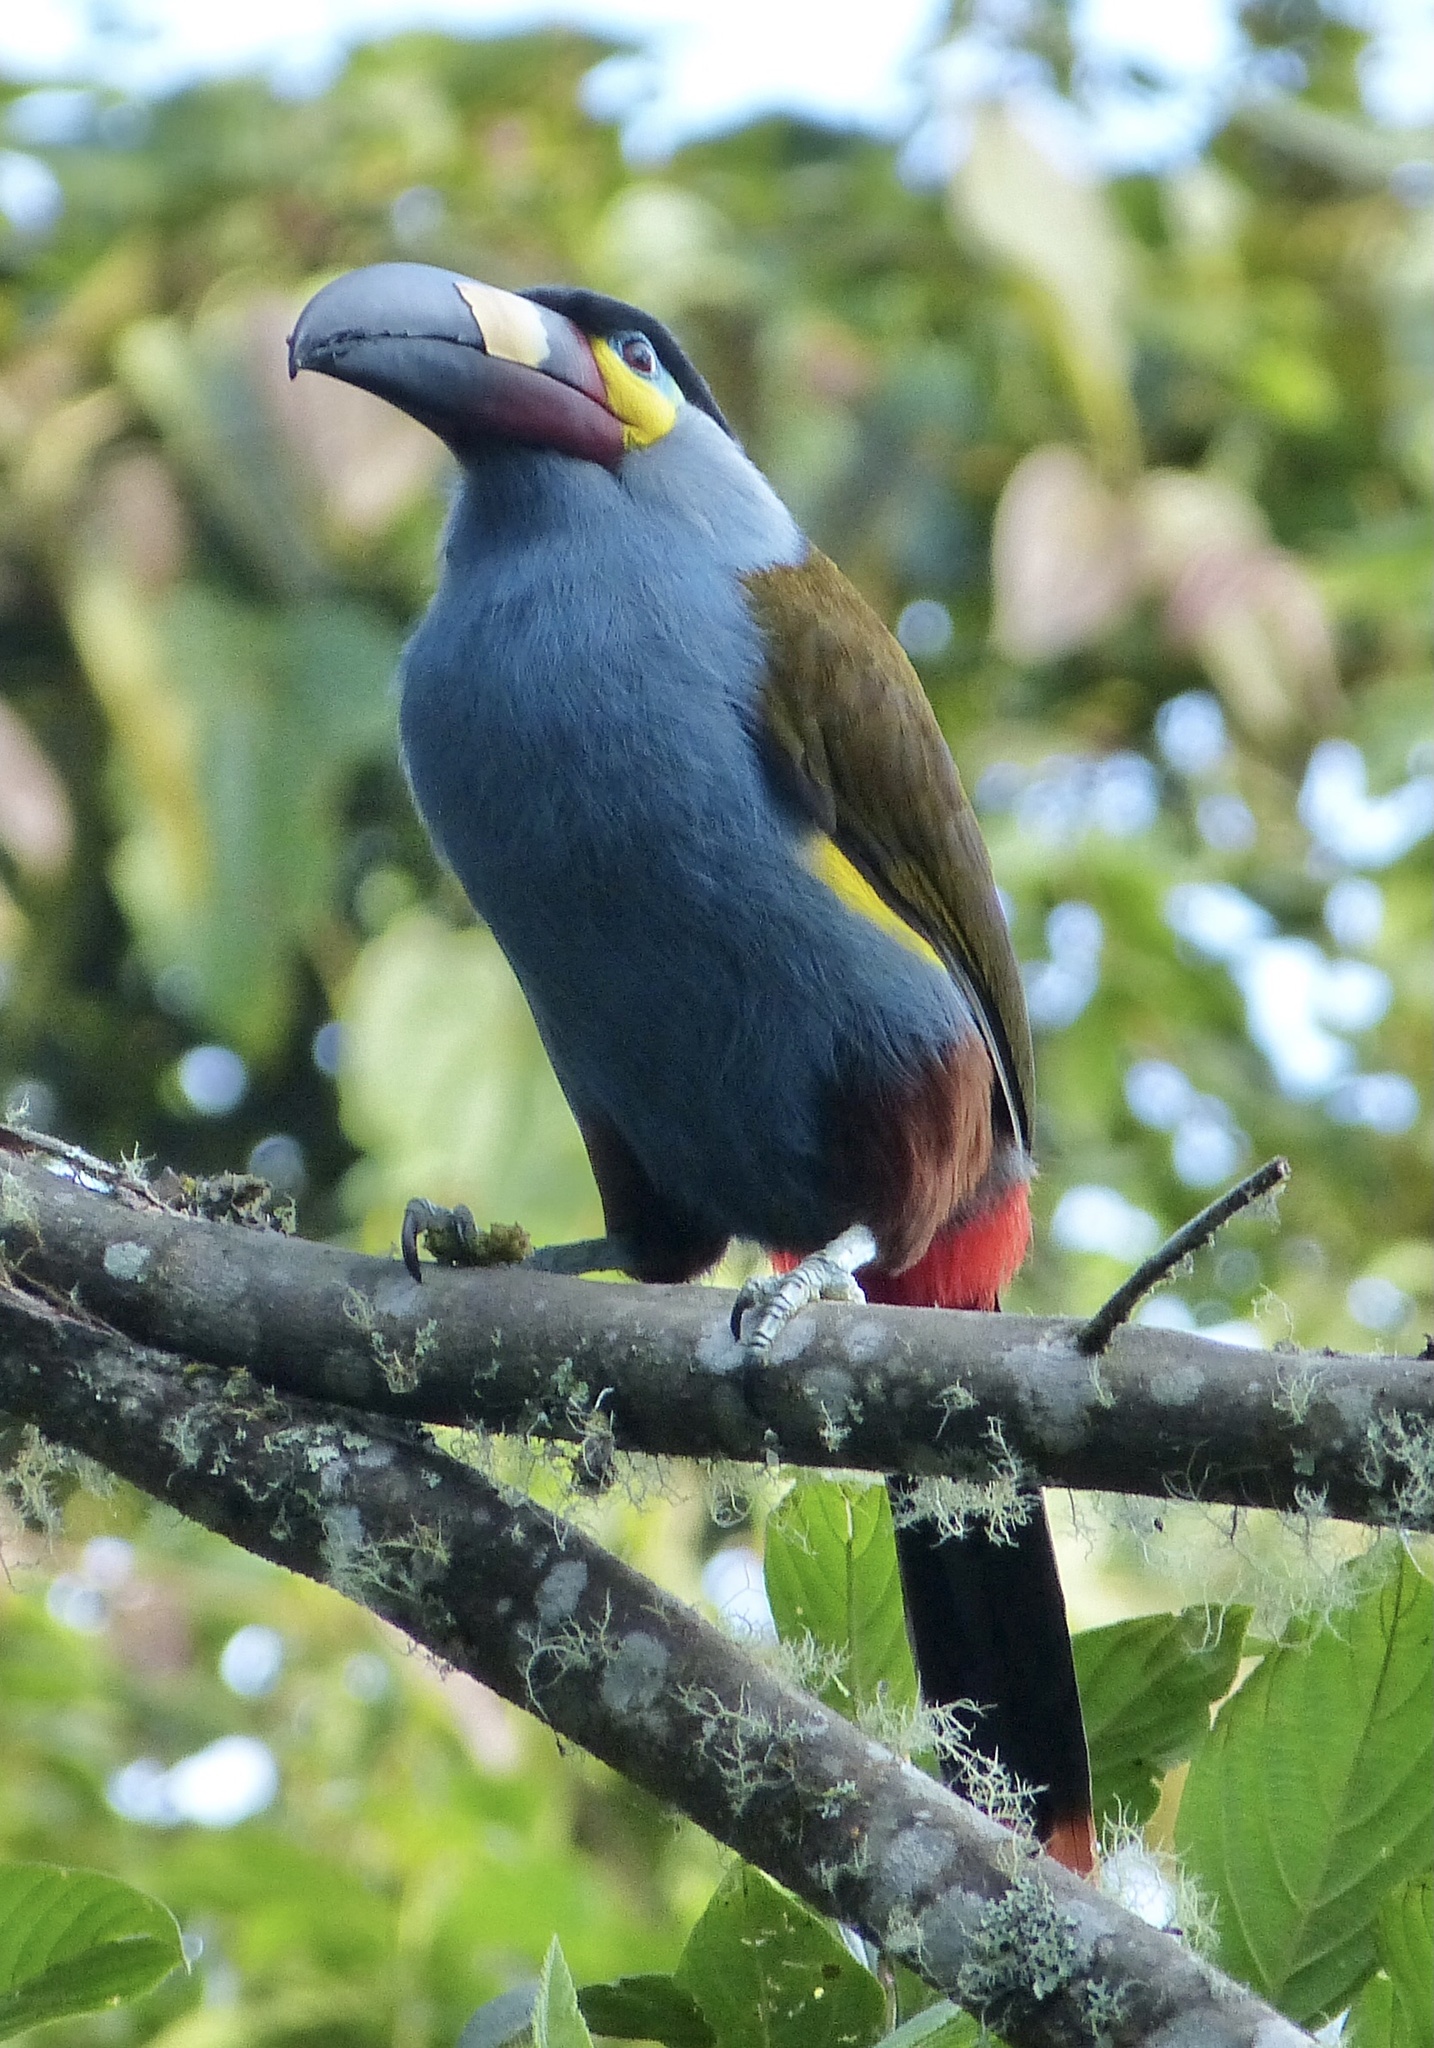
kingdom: Animalia
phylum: Chordata
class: Aves
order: Piciformes
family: Ramphastidae
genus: Andigena
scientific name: Andigena laminirostris
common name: Plate-billed mountain toucan
